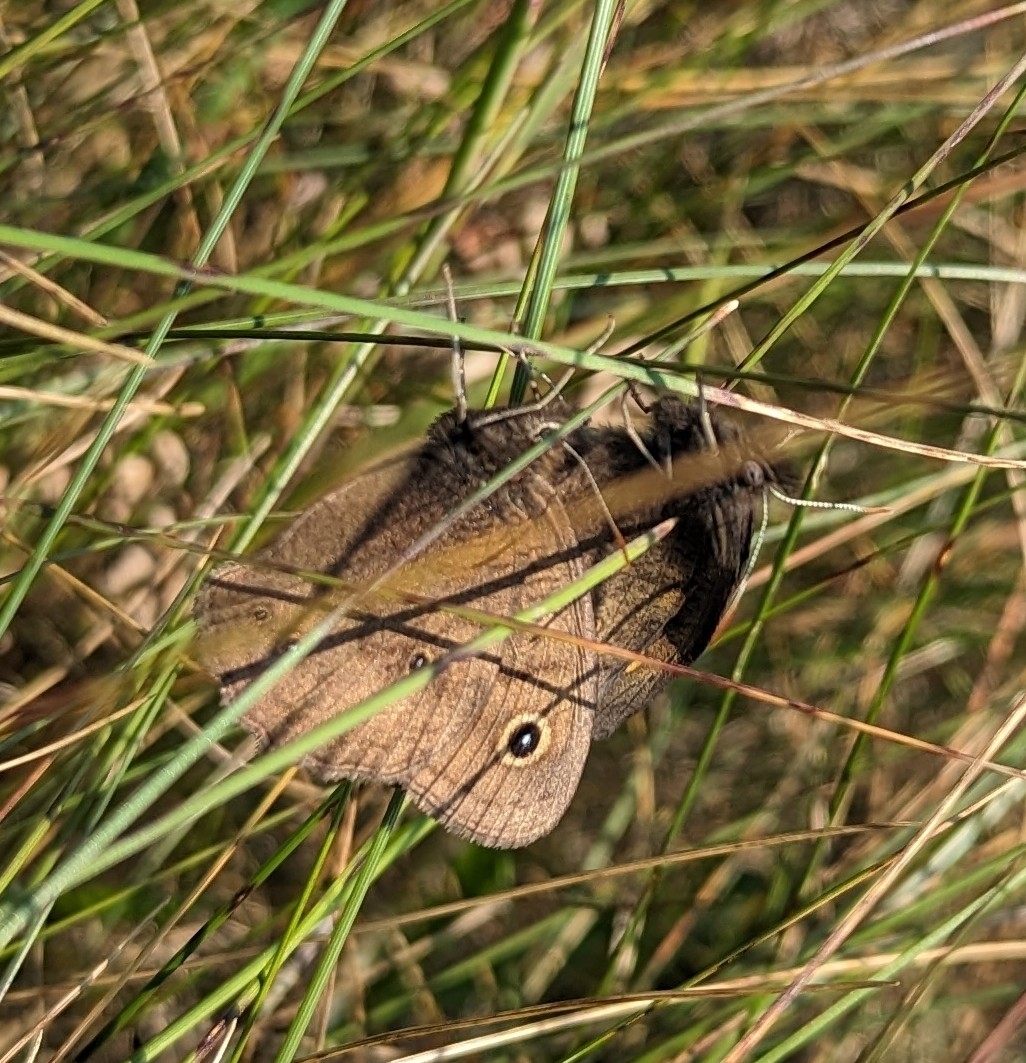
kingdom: Animalia
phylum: Arthropoda
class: Insecta
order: Lepidoptera
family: Nymphalidae
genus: Cercyonis
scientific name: Cercyonis pegala
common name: Common wood-nymph
